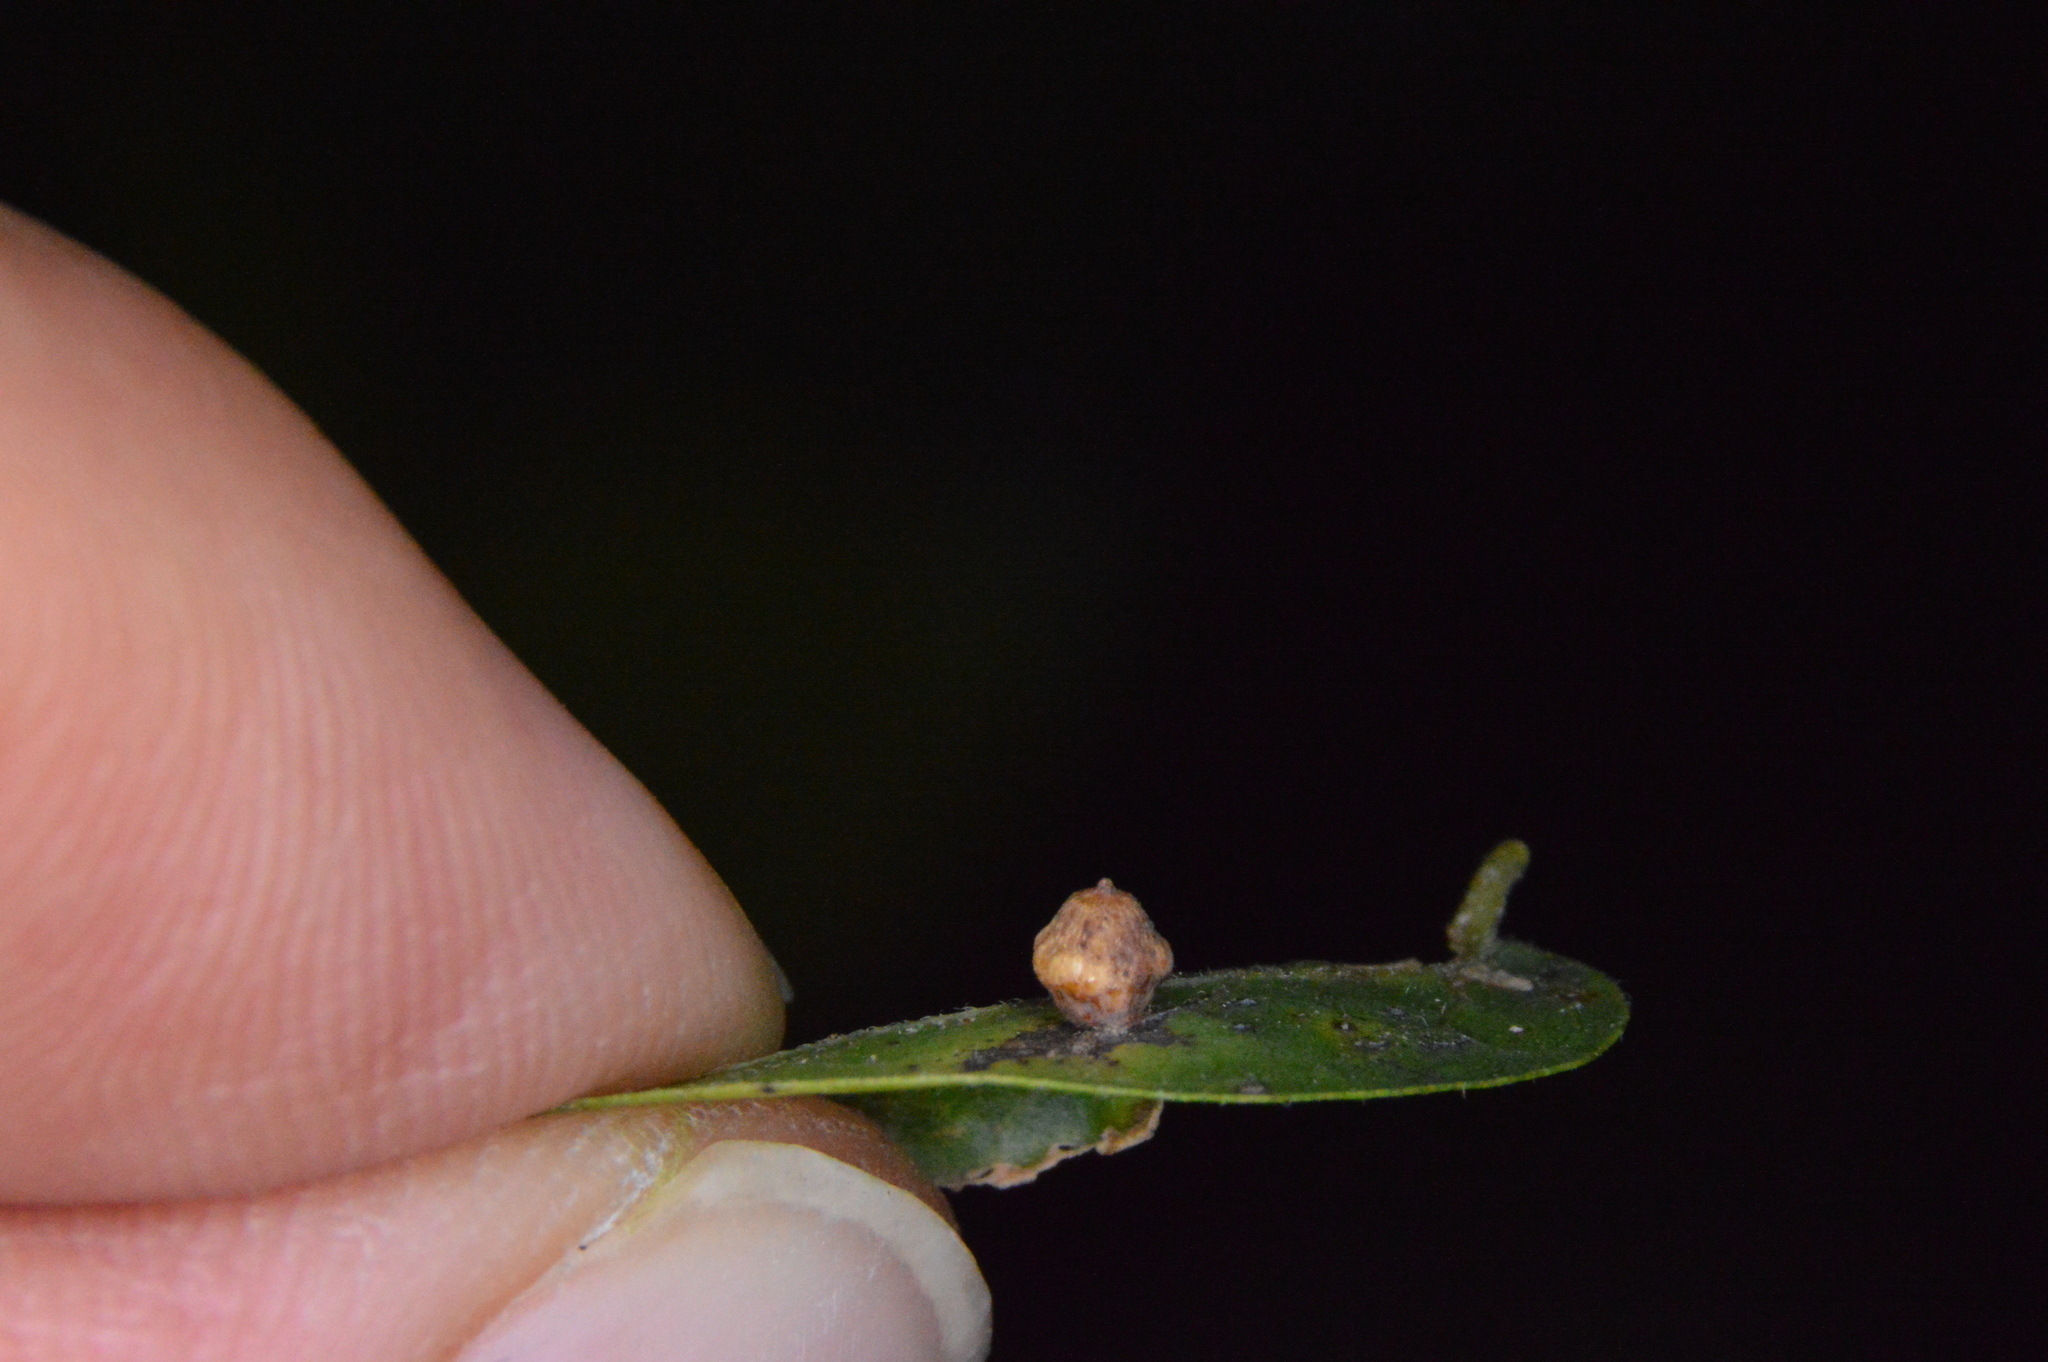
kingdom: Animalia
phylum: Arthropoda
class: Insecta
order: Diptera
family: Cecidomyiidae
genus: Celticecis
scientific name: Celticecis globosa
